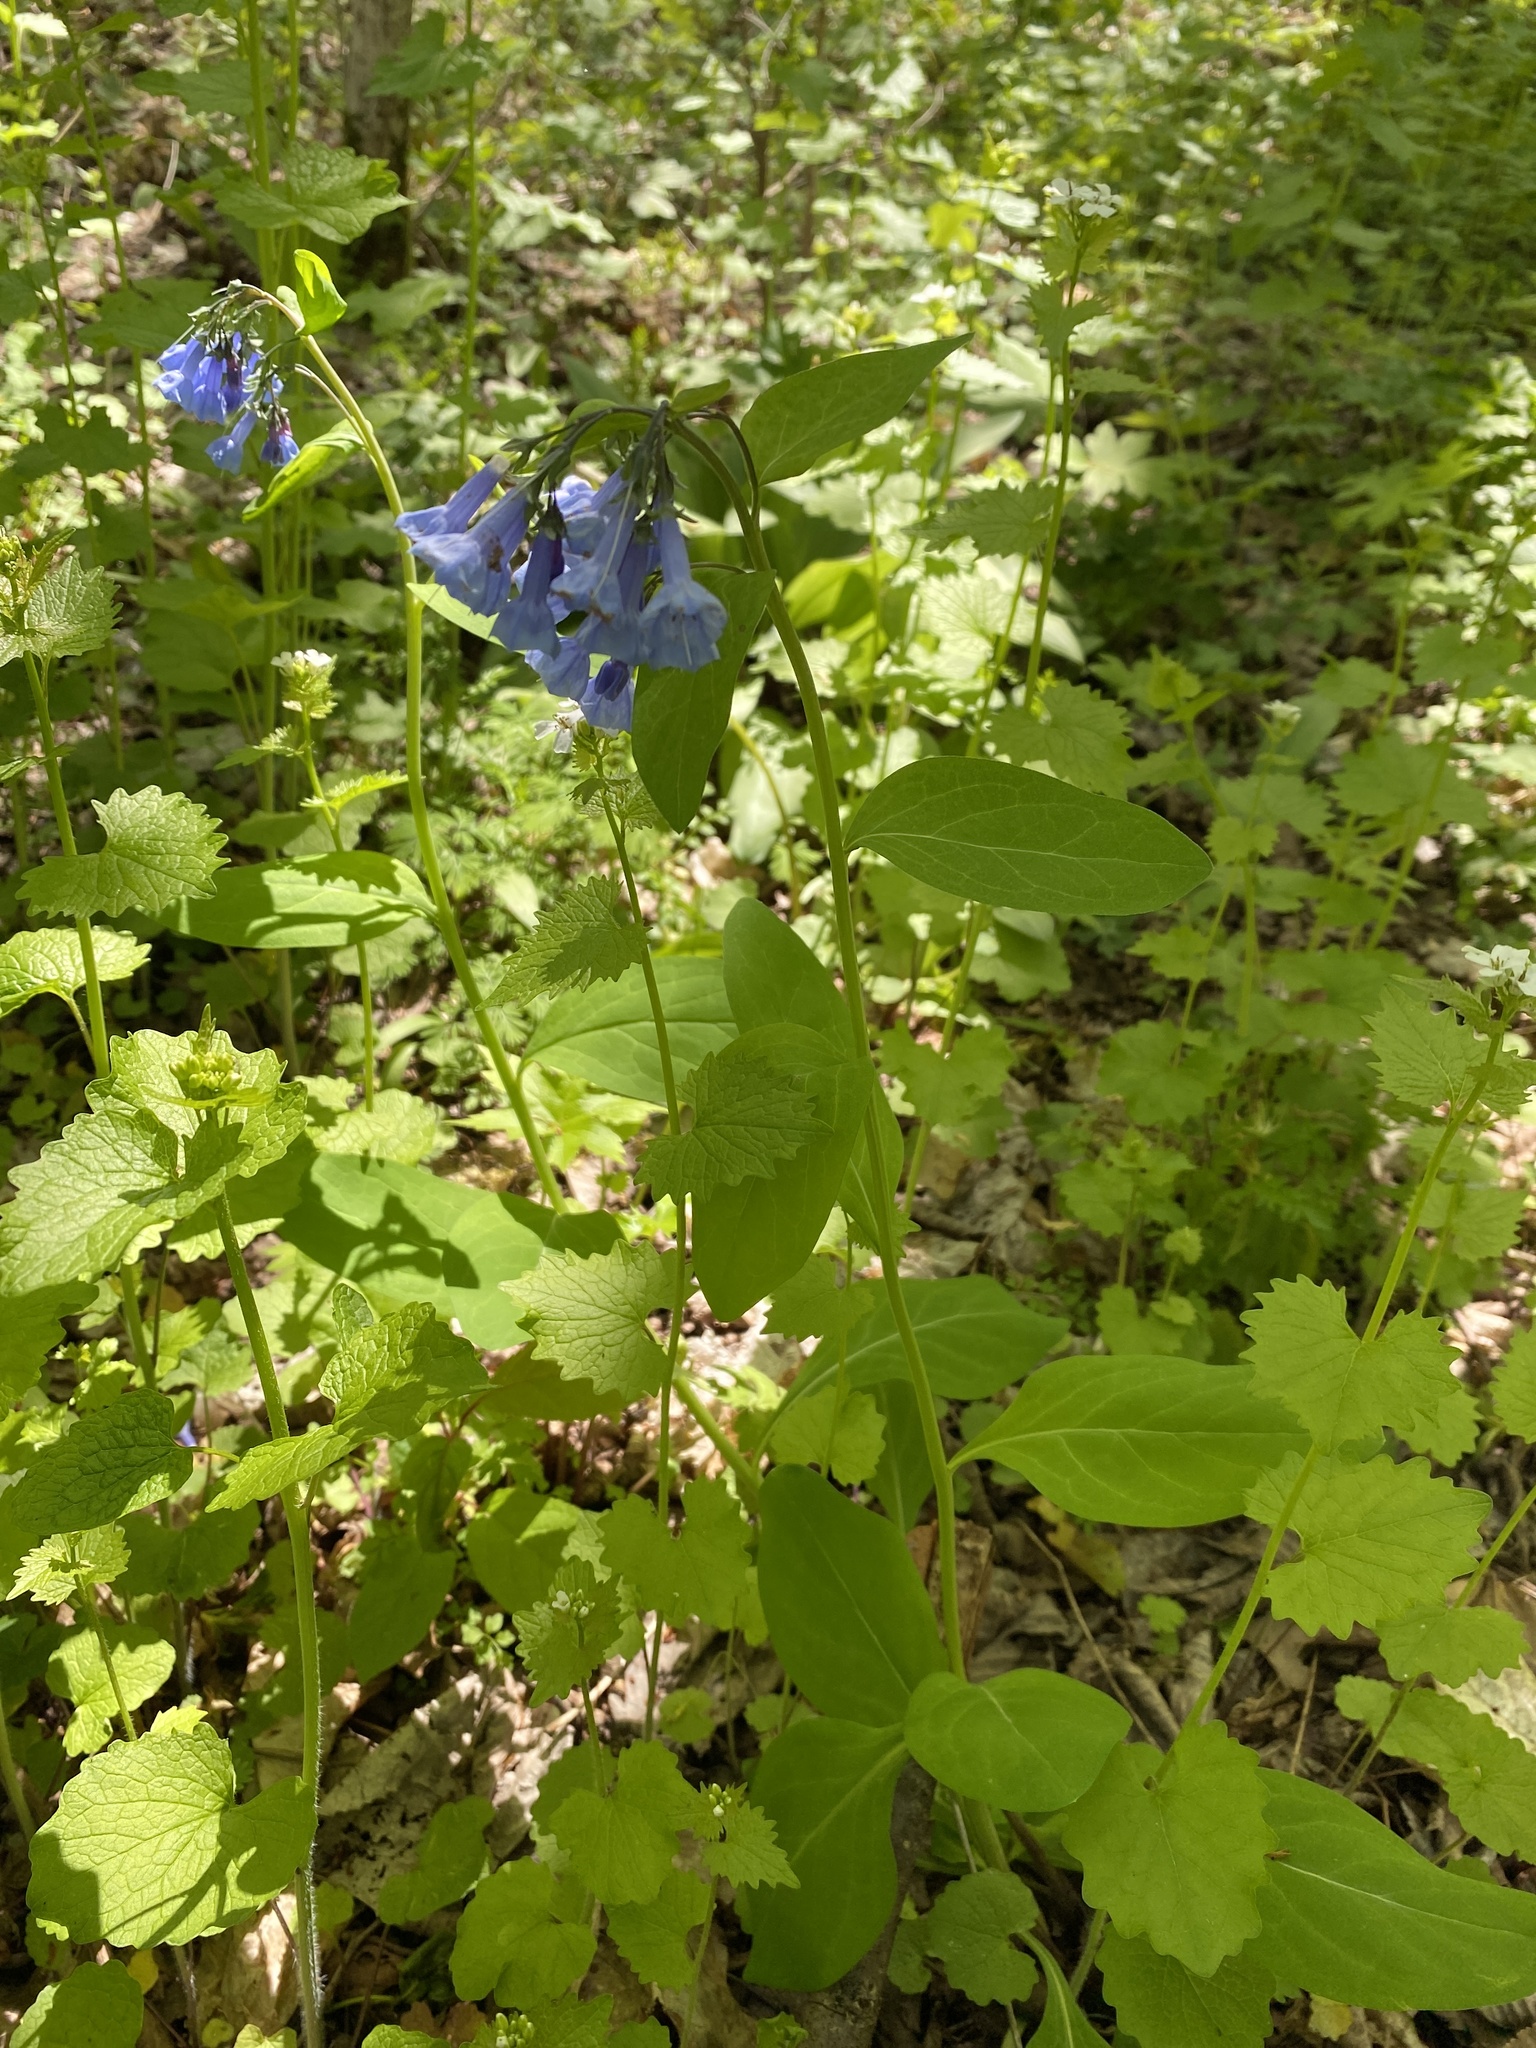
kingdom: Plantae
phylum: Tracheophyta
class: Magnoliopsida
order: Boraginales
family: Boraginaceae
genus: Mertensia
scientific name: Mertensia virginica
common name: Virginia bluebells
